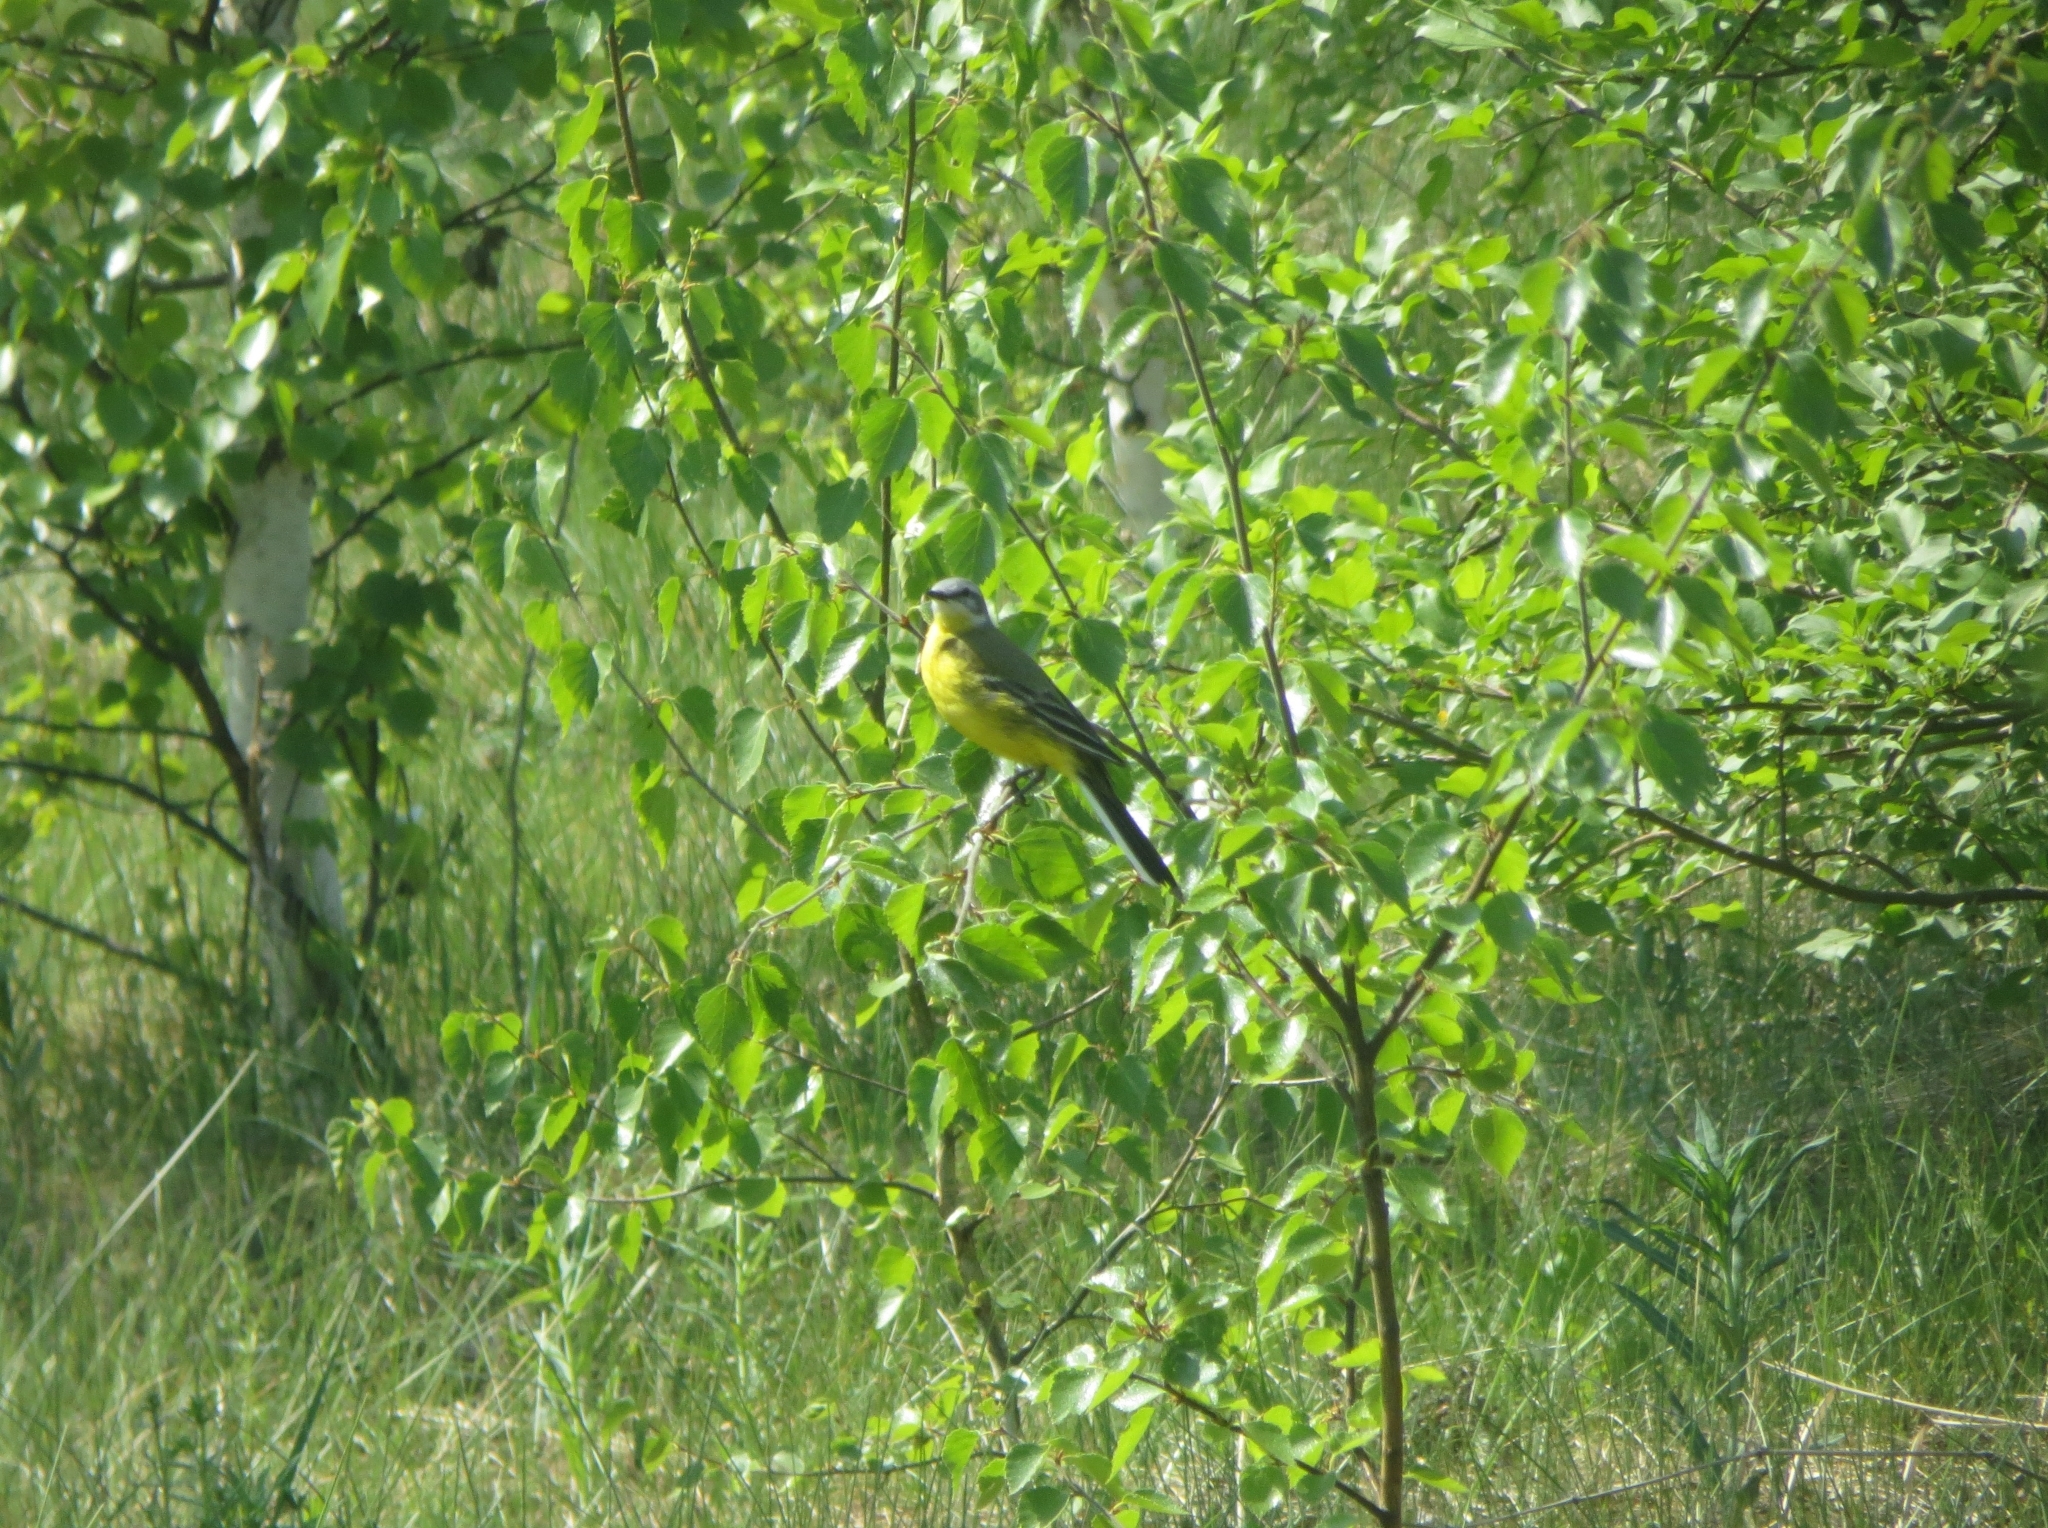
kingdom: Animalia
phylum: Chordata
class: Aves
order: Passeriformes
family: Motacillidae
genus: Motacilla
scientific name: Motacilla flava
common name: Western yellow wagtail
